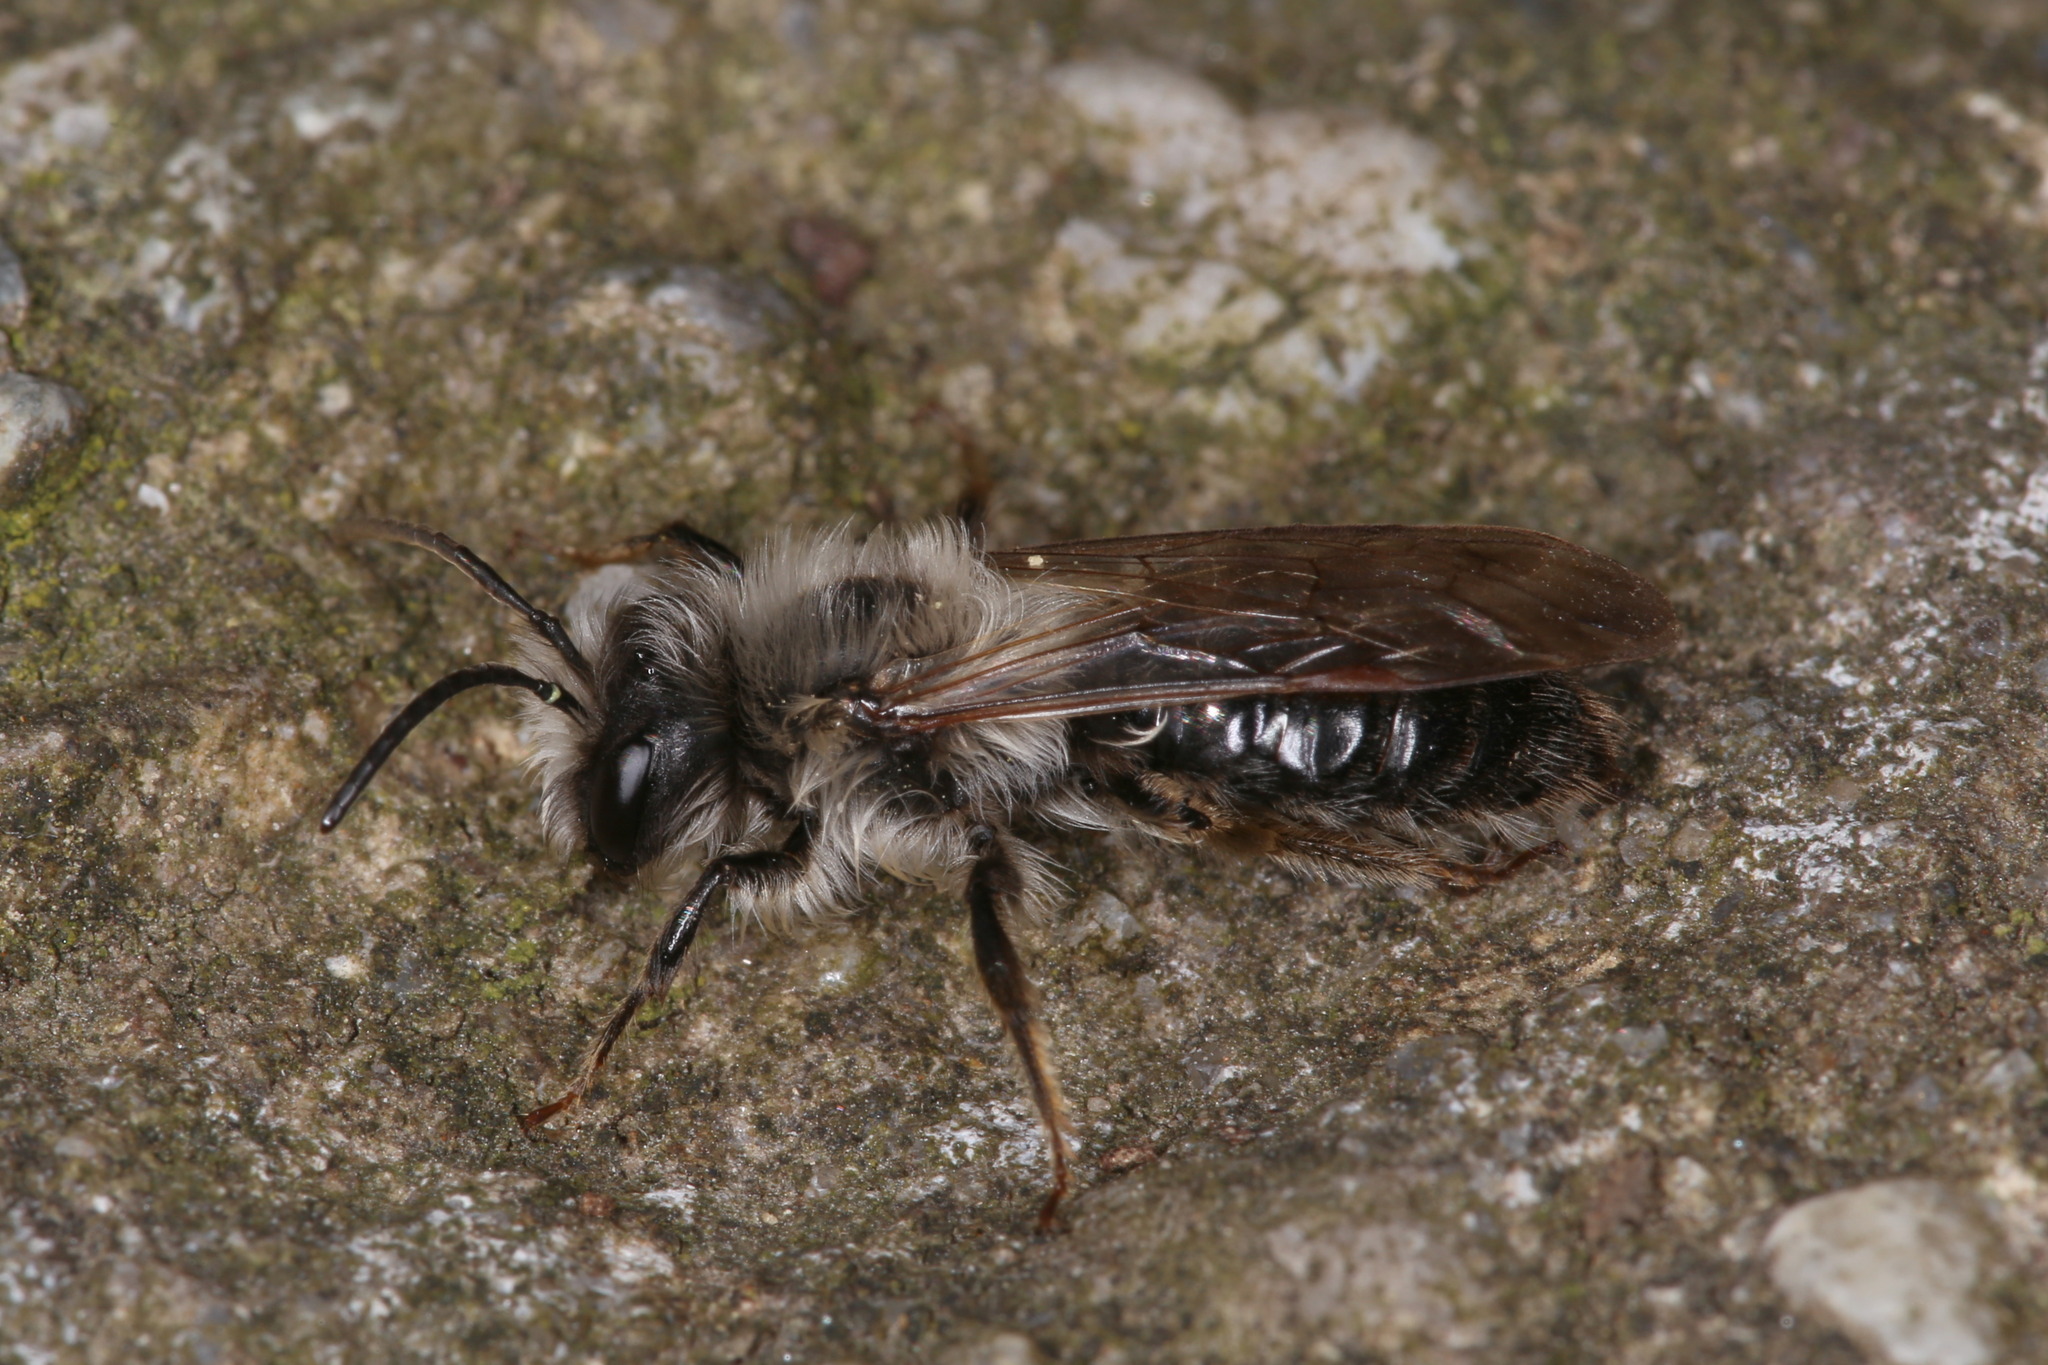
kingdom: Animalia
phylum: Arthropoda
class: Insecta
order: Hymenoptera
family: Andrenidae
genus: Andrena
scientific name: Andrena vaga
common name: Grey-backed mining bee
